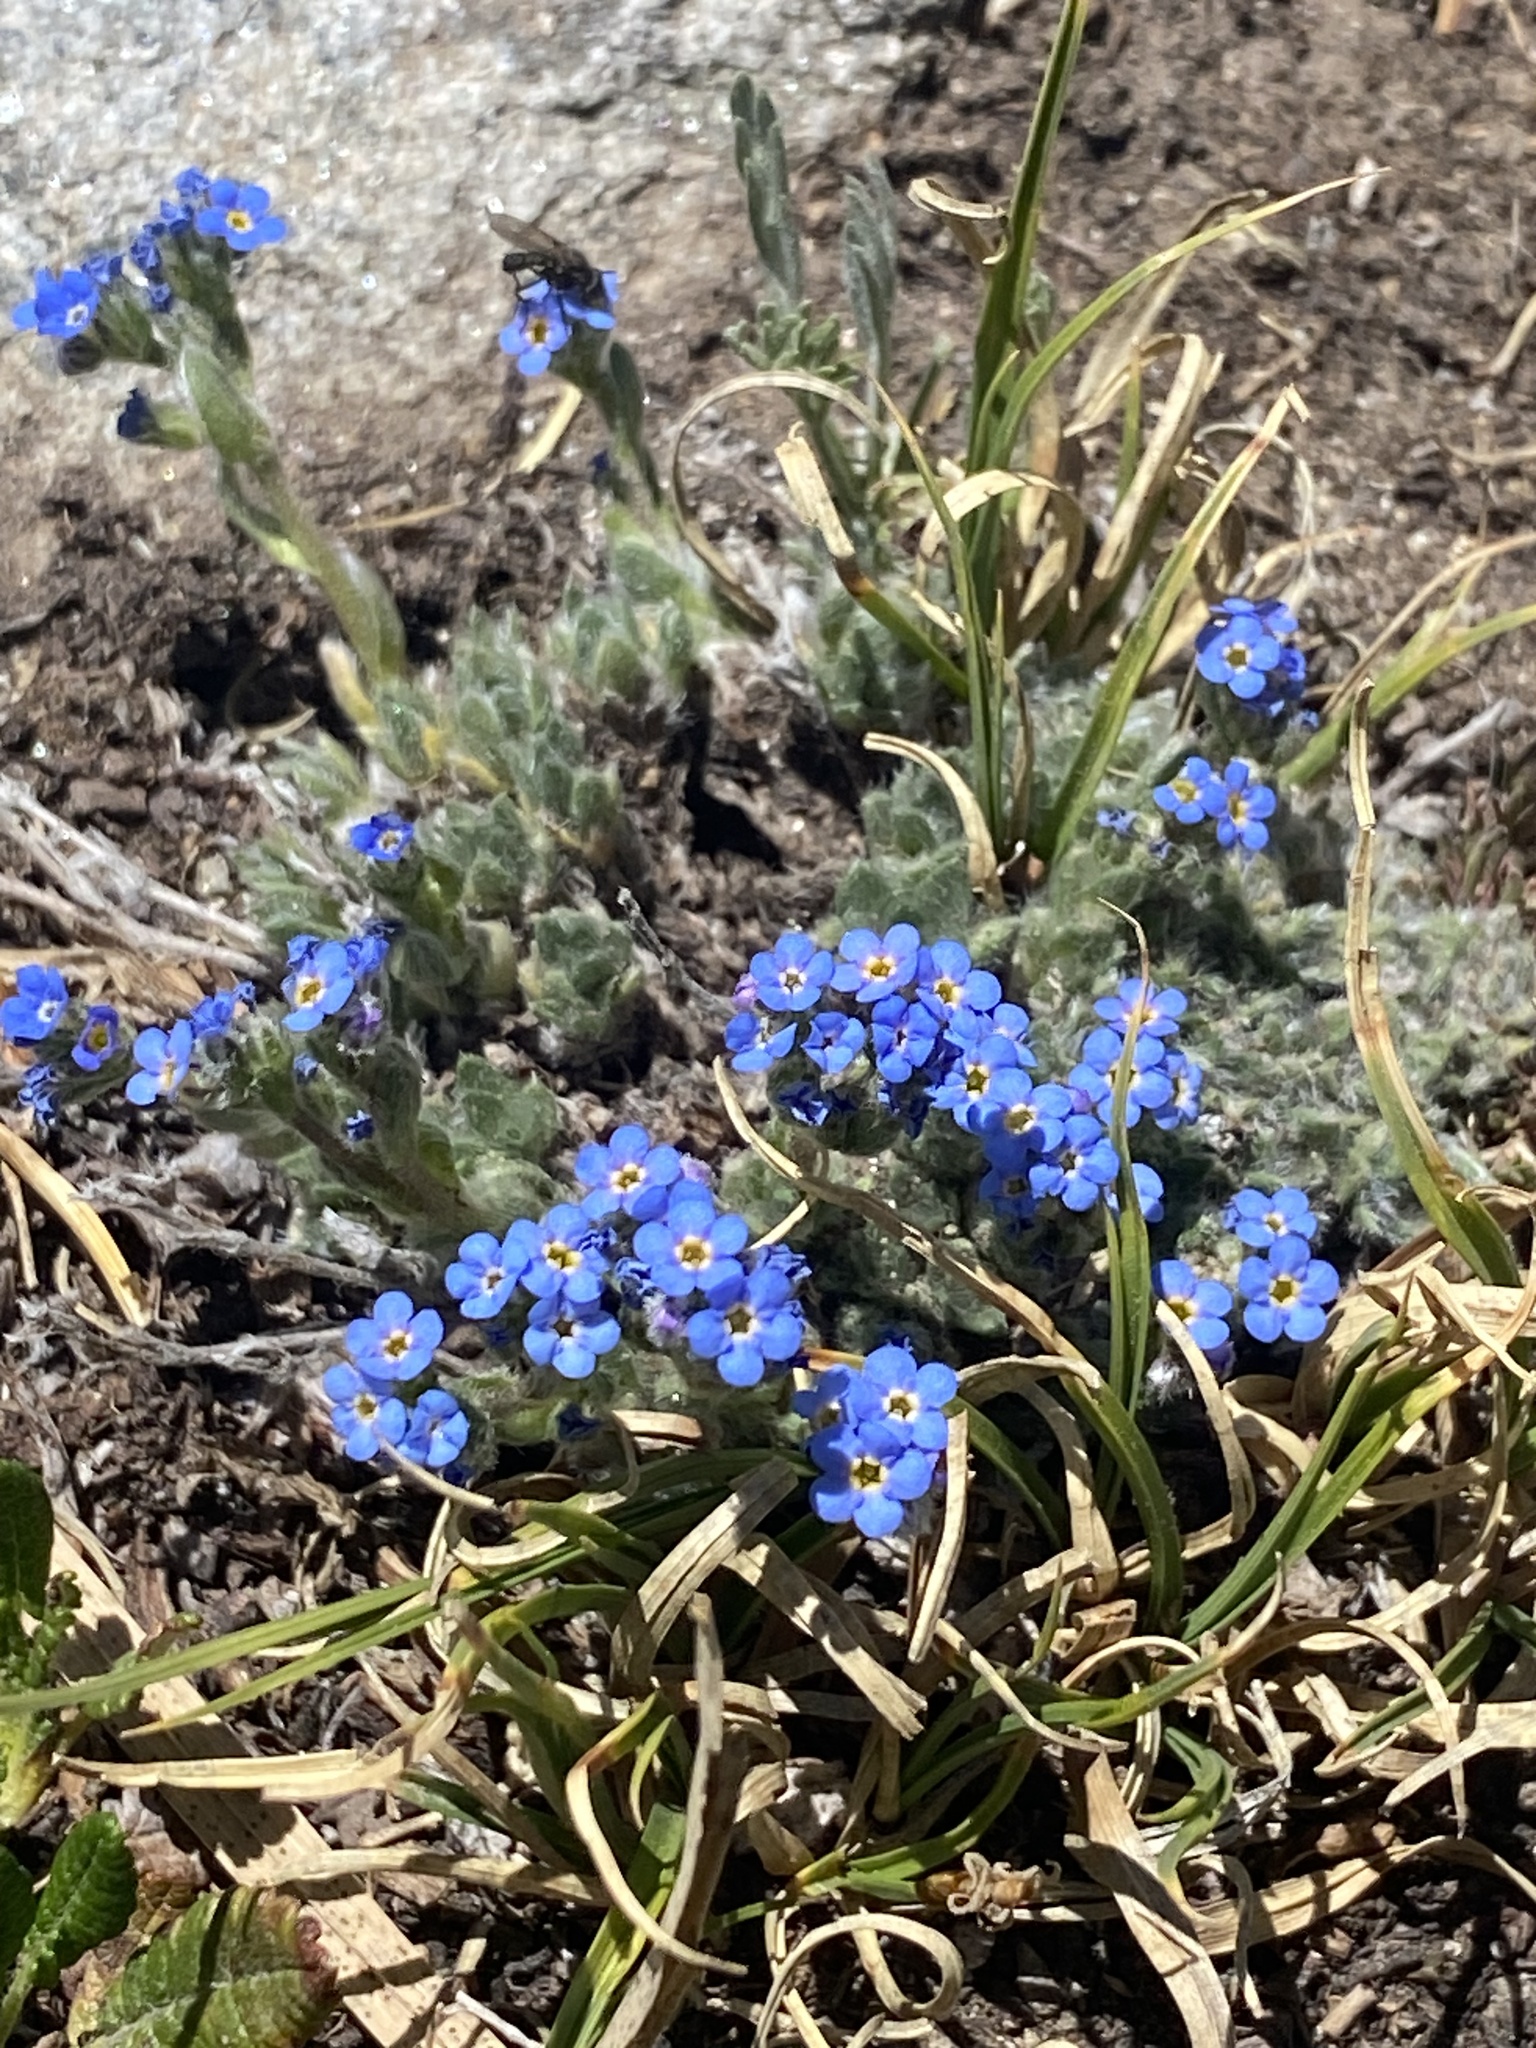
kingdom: Plantae
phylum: Tracheophyta
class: Magnoliopsida
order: Boraginales
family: Boraginaceae
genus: Eritrichium
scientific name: Eritrichium argenteum
